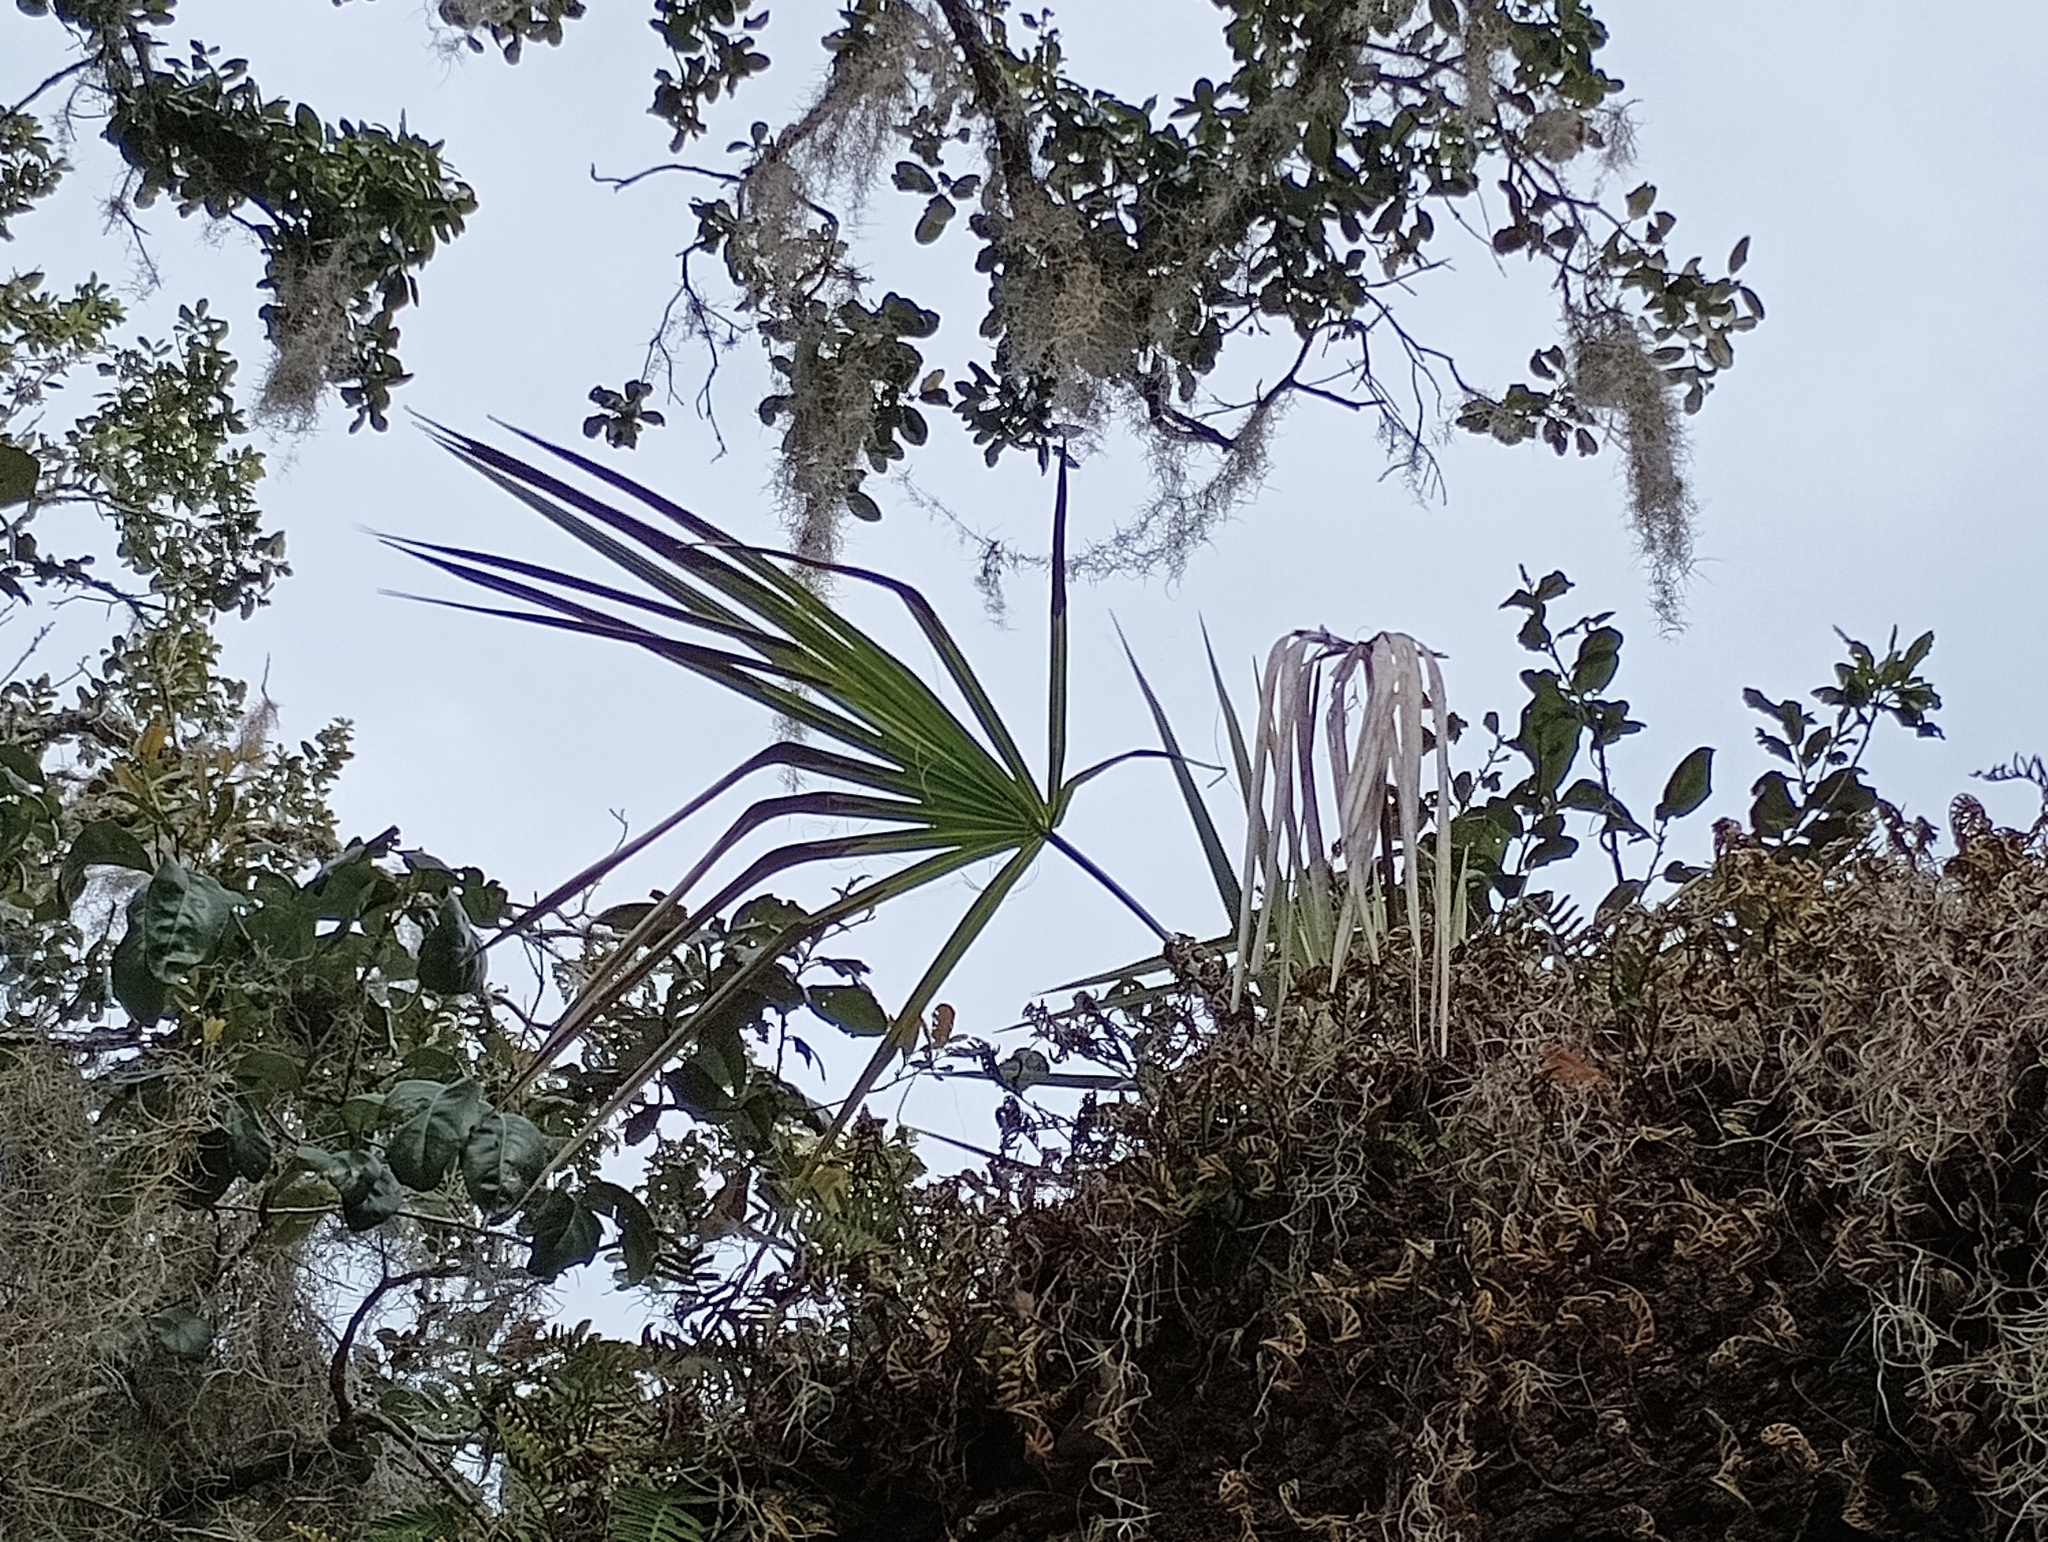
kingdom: Plantae
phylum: Tracheophyta
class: Liliopsida
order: Arecales
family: Arecaceae
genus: Sabal
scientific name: Sabal palmetto
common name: Blue palmetto
